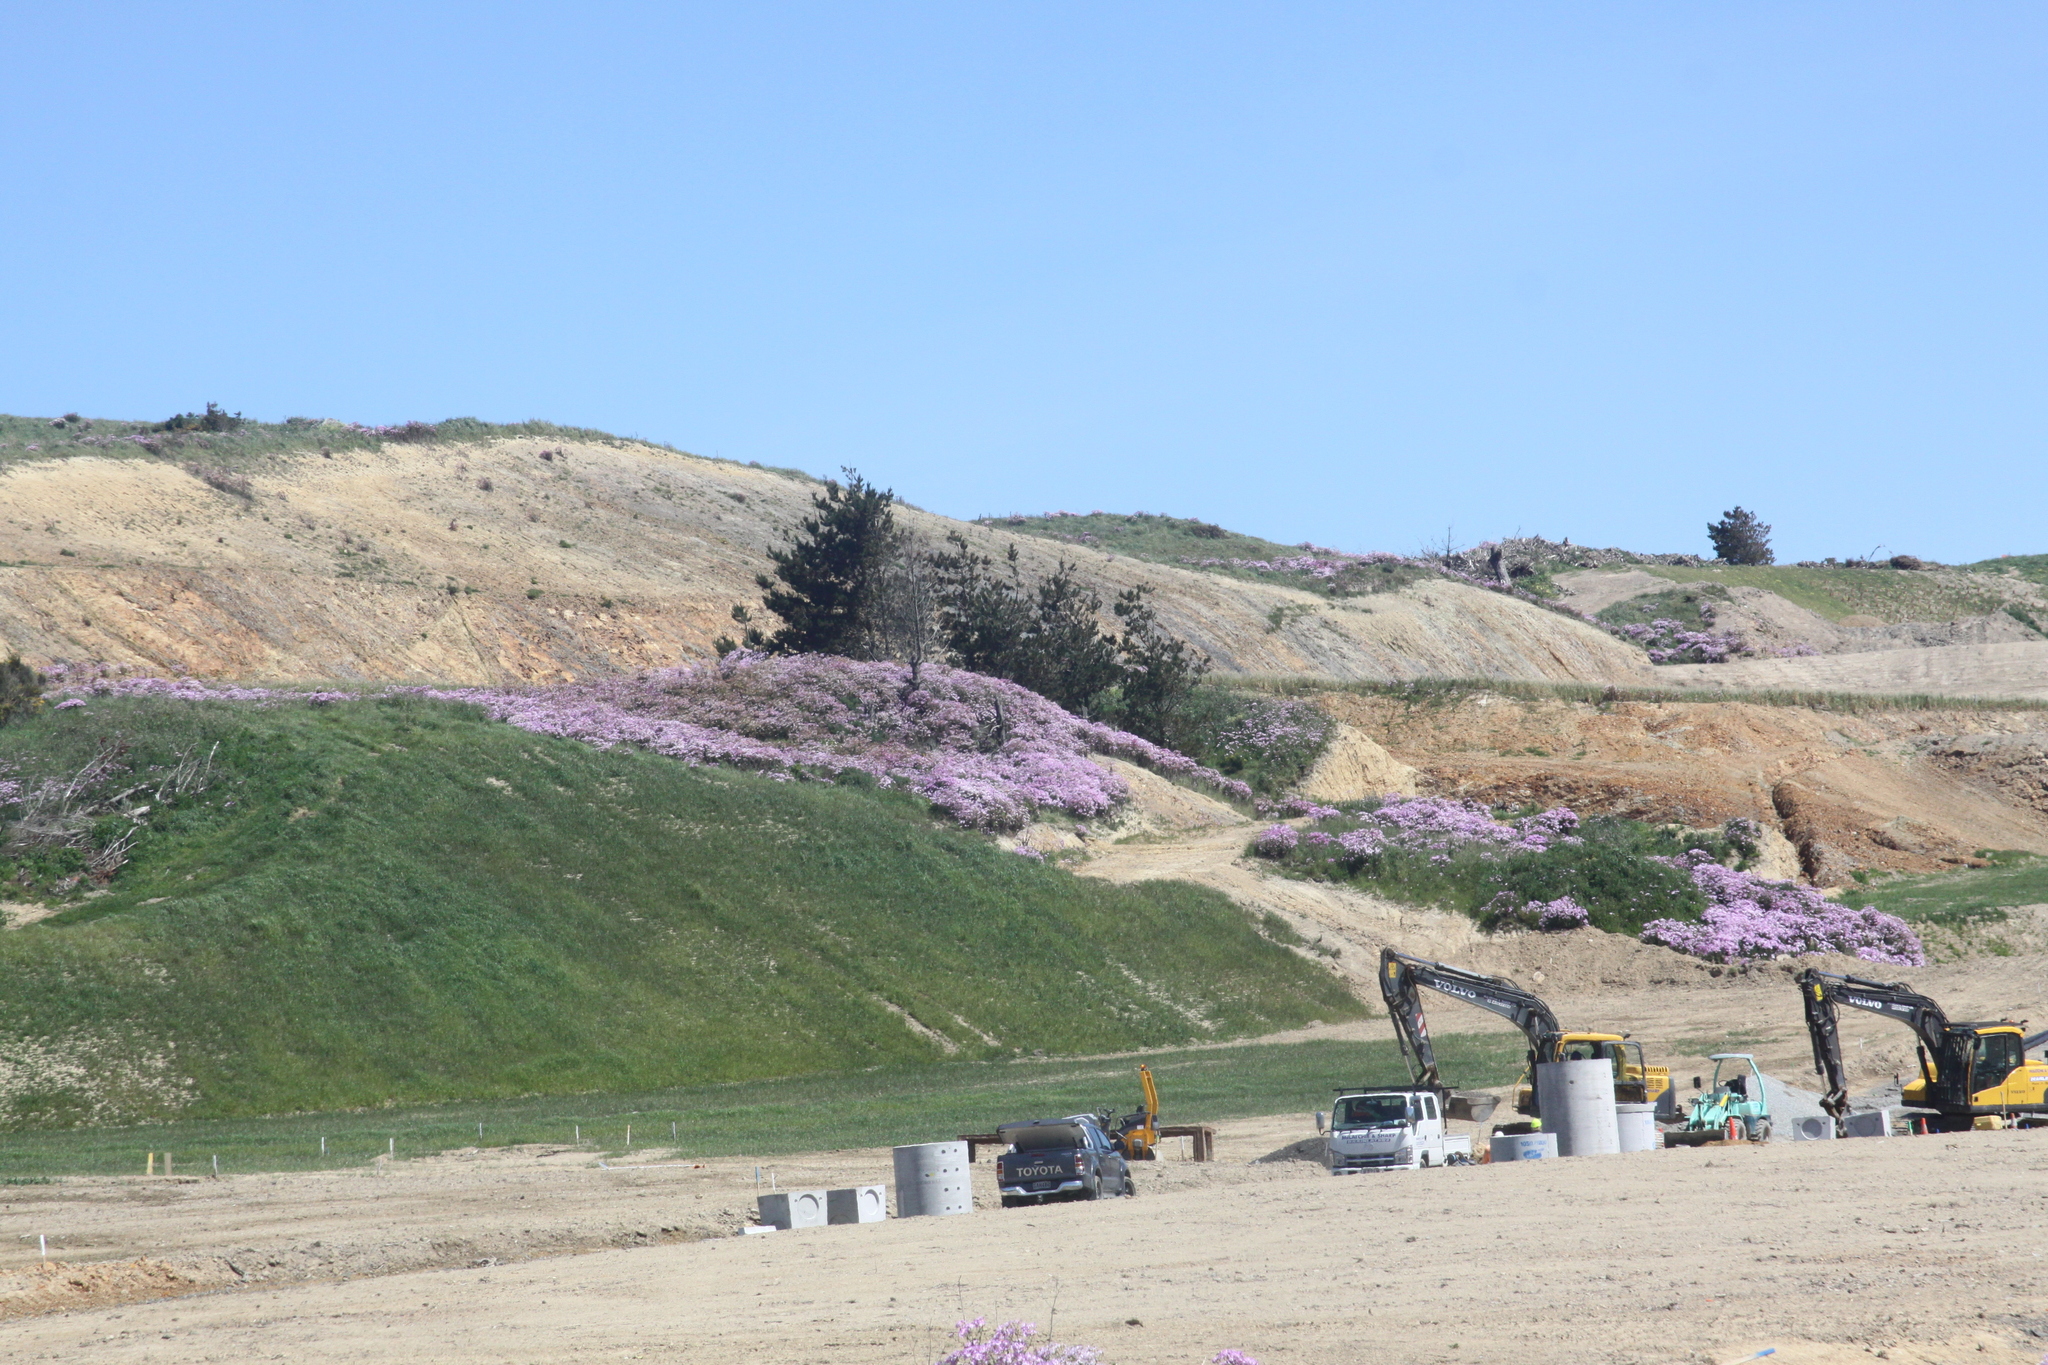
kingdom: Plantae
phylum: Tracheophyta
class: Magnoliopsida
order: Asterales
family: Asteraceae
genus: Senecio
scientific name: Senecio glastifolius
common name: Woad-leaved ragwort
